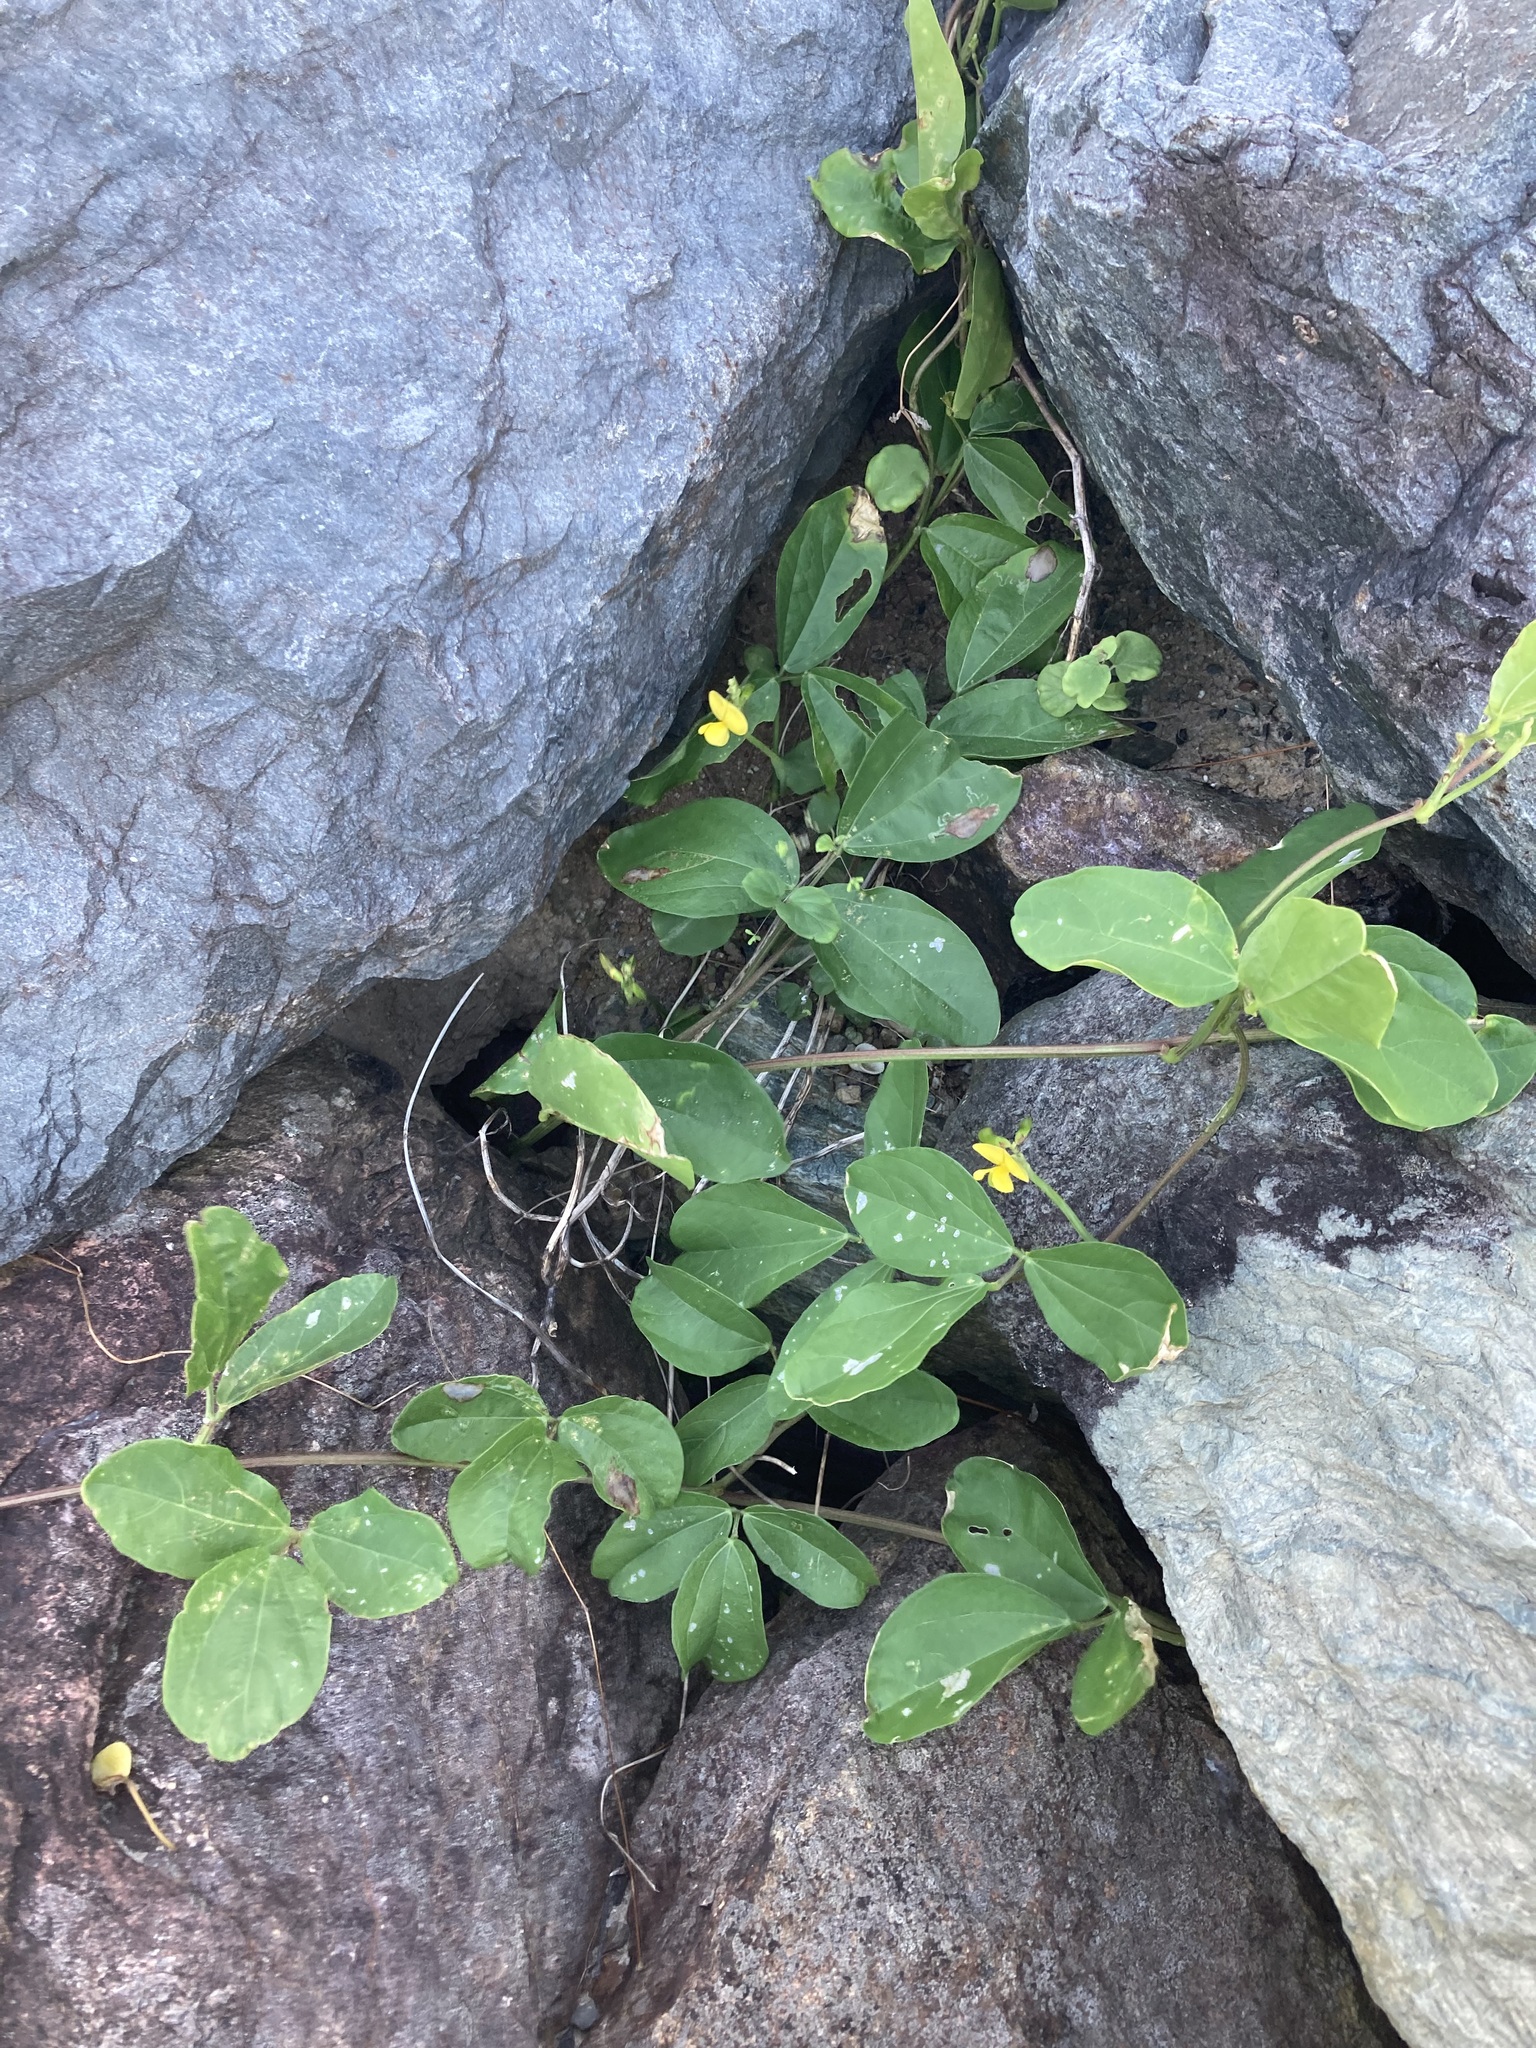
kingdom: Plantae
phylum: Tracheophyta
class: Magnoliopsida
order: Fabales
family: Fabaceae
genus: Vigna
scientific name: Vigna marina
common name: Dune-bean
